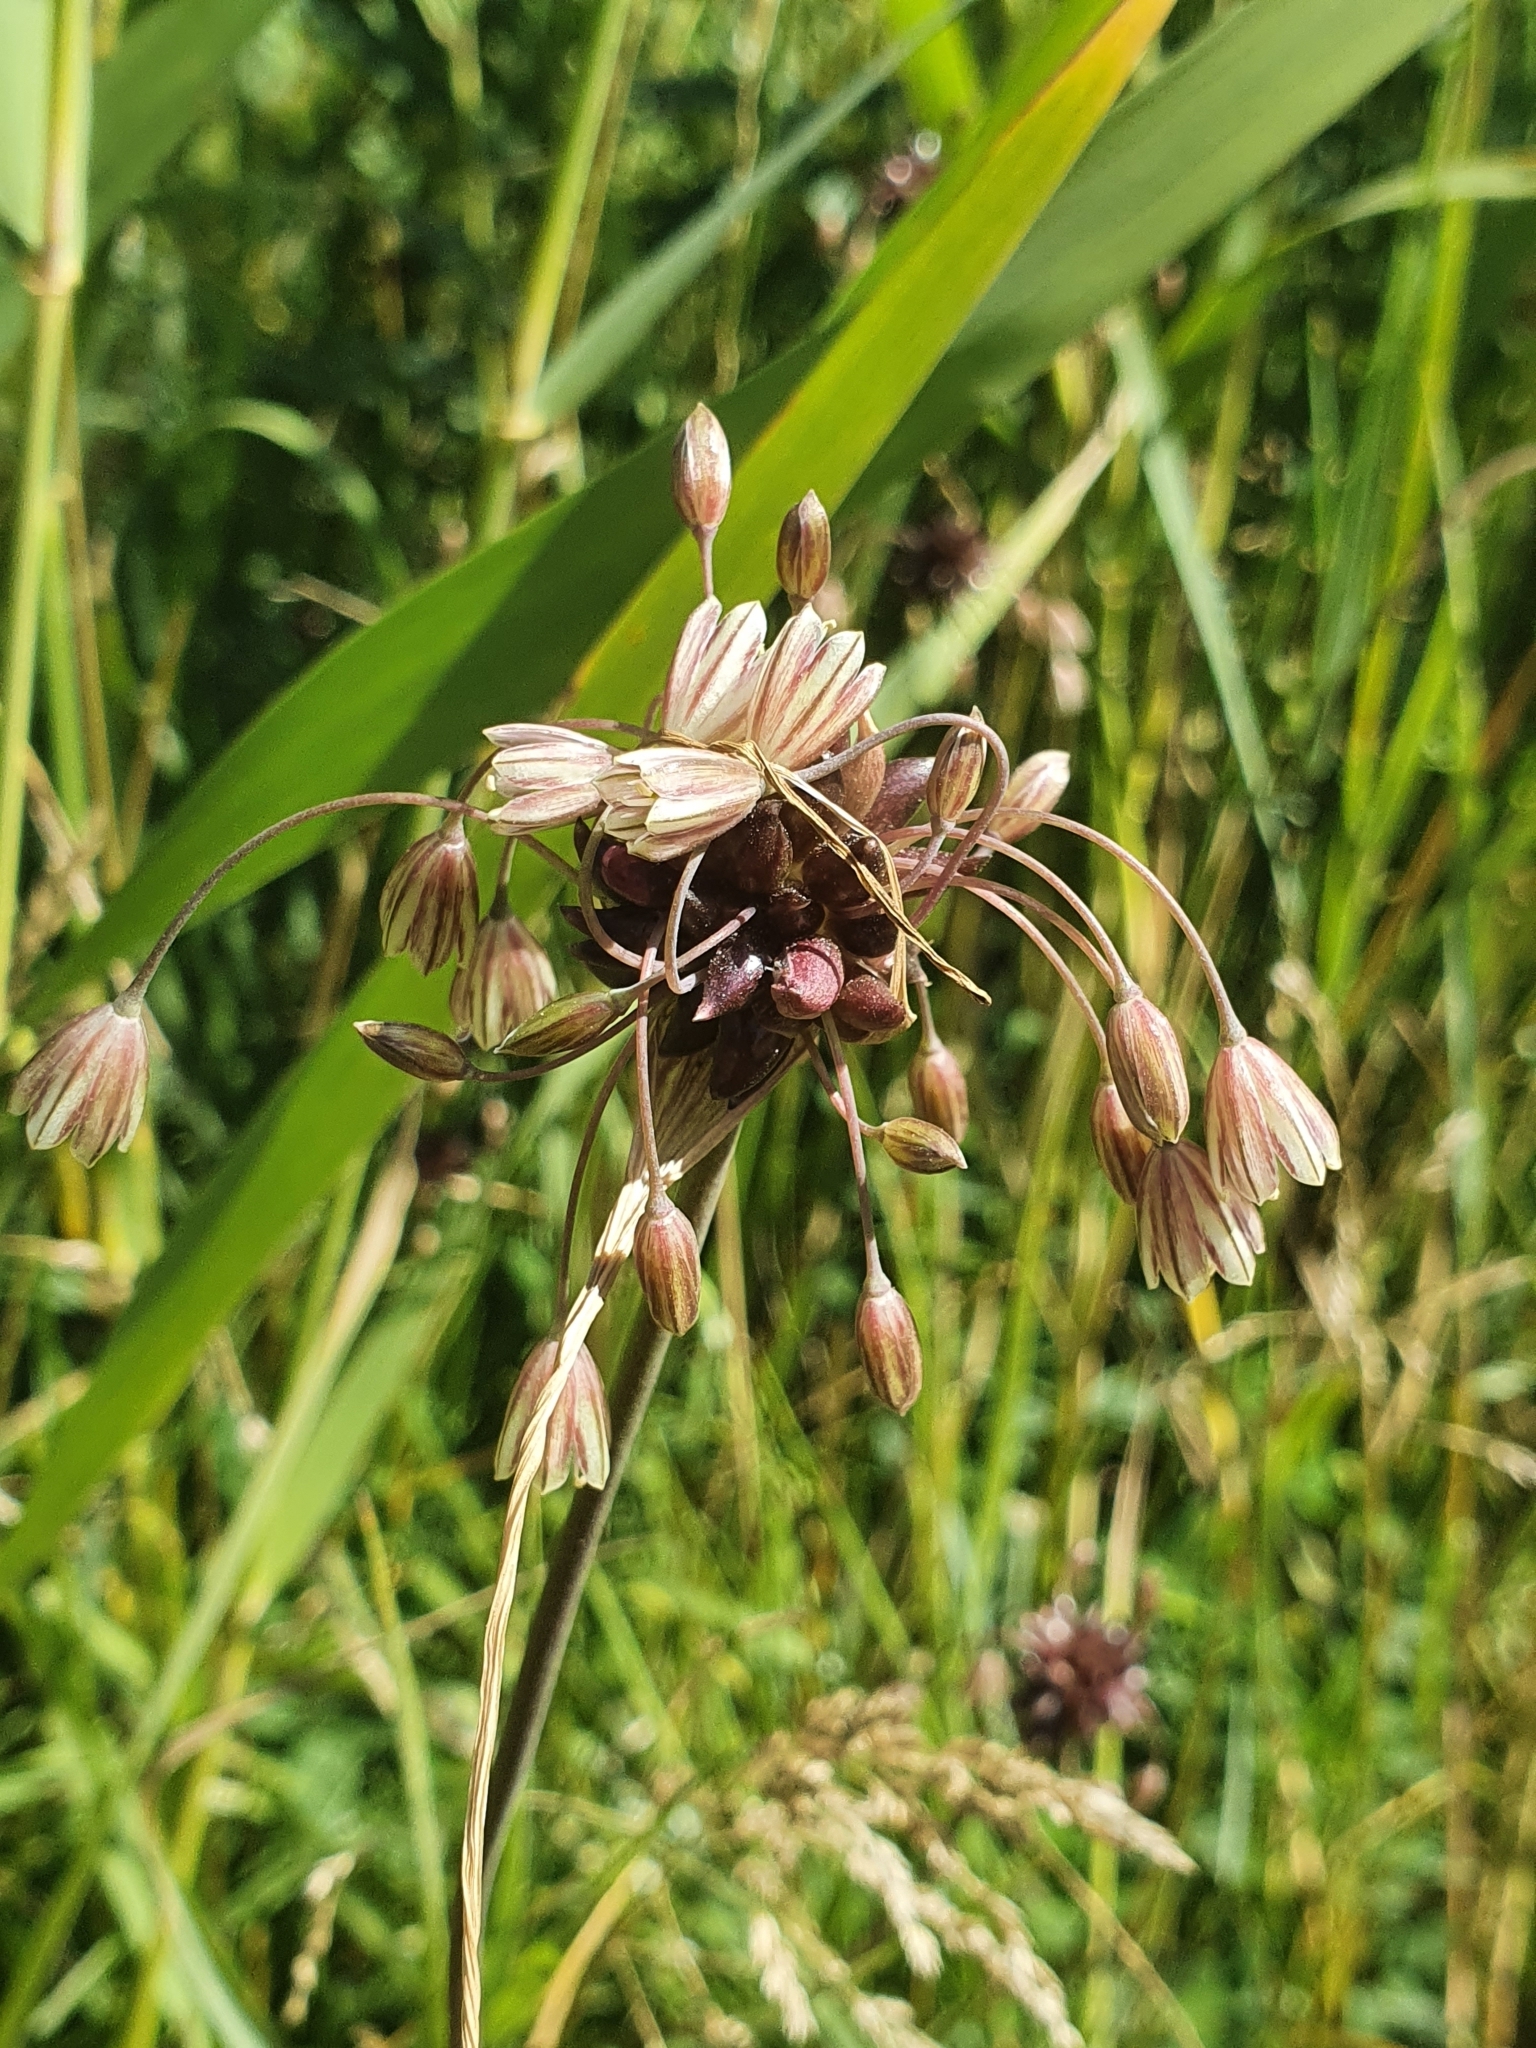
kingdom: Plantae
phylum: Tracheophyta
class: Liliopsida
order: Asparagales
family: Amaryllidaceae
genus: Allium
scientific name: Allium oleraceum
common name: Field garlic
